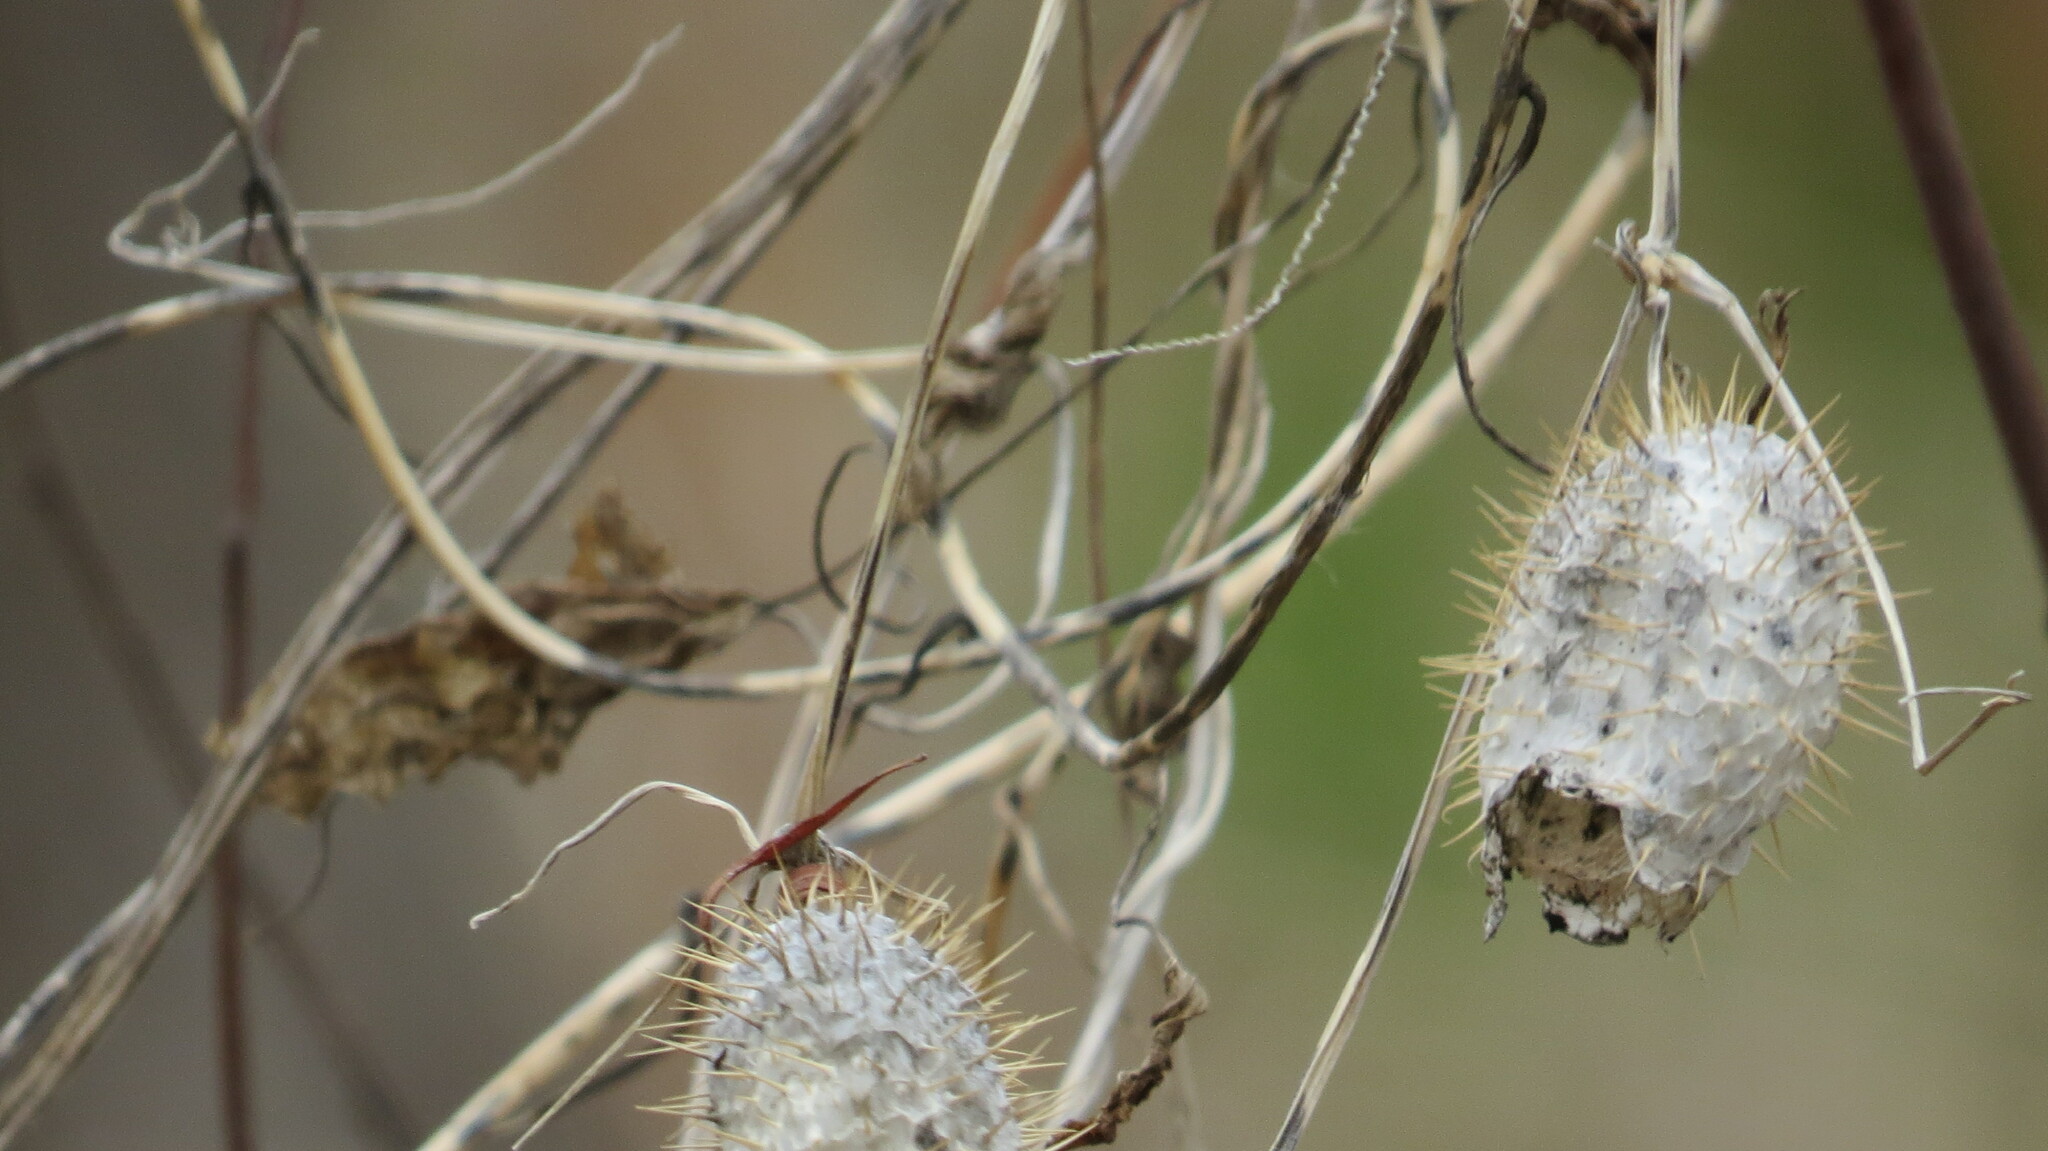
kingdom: Plantae
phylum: Tracheophyta
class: Magnoliopsida
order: Cucurbitales
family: Cucurbitaceae
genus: Echinocystis
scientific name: Echinocystis lobata
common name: Wild cucumber
